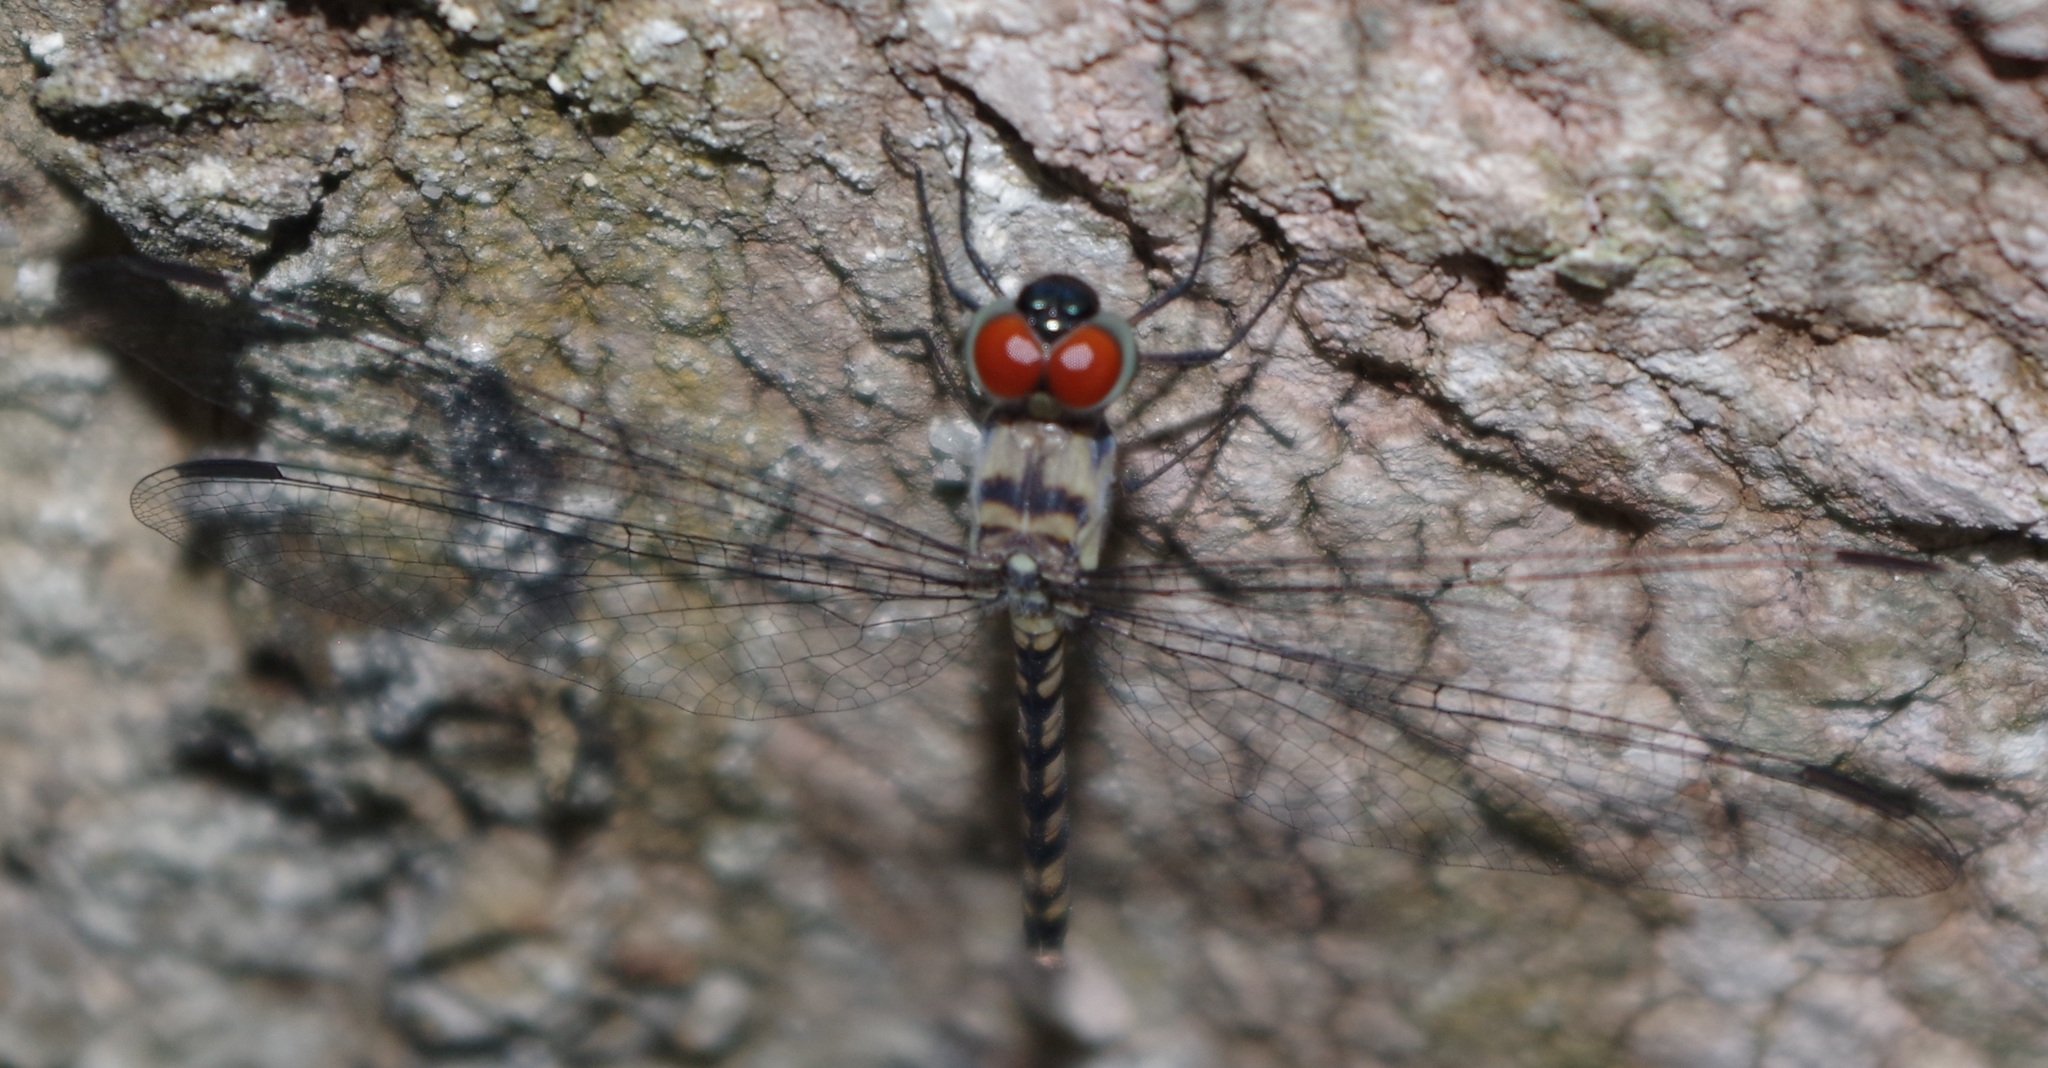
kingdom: Animalia
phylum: Arthropoda
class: Insecta
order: Odonata
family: Libellulidae
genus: Tyriobapta
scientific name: Tyriobapta torrida
